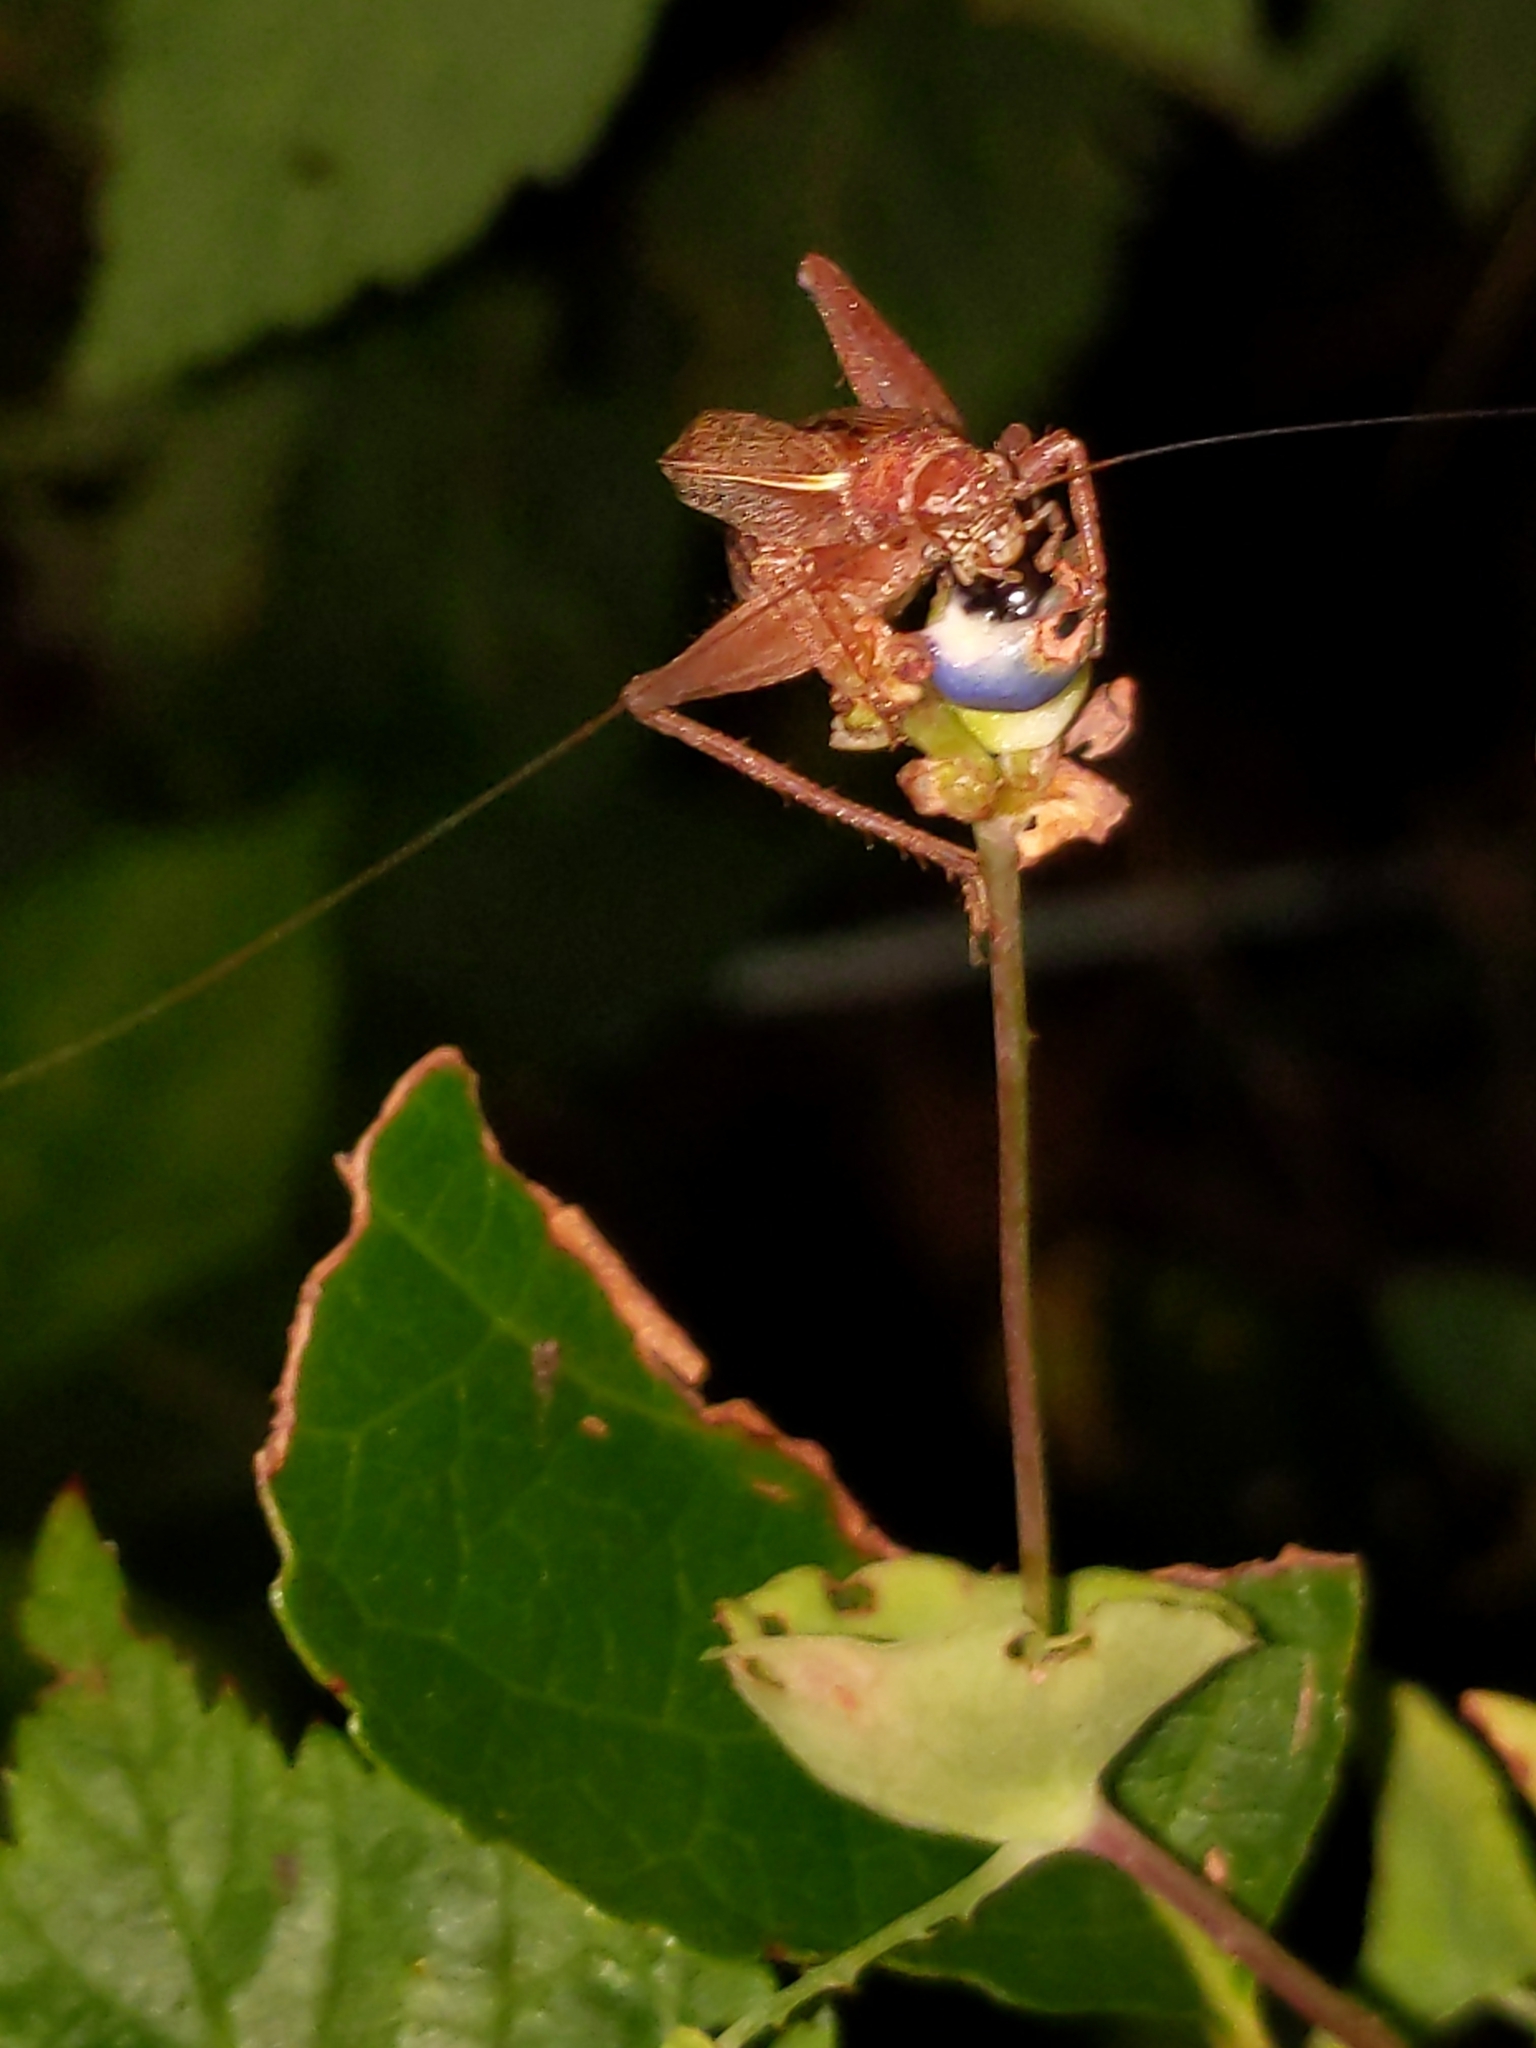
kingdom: Animalia
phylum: Arthropoda
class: Insecta
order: Orthoptera
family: Gryllidae
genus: Hapithus
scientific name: Hapithus agitator
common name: Restless bush cricket
